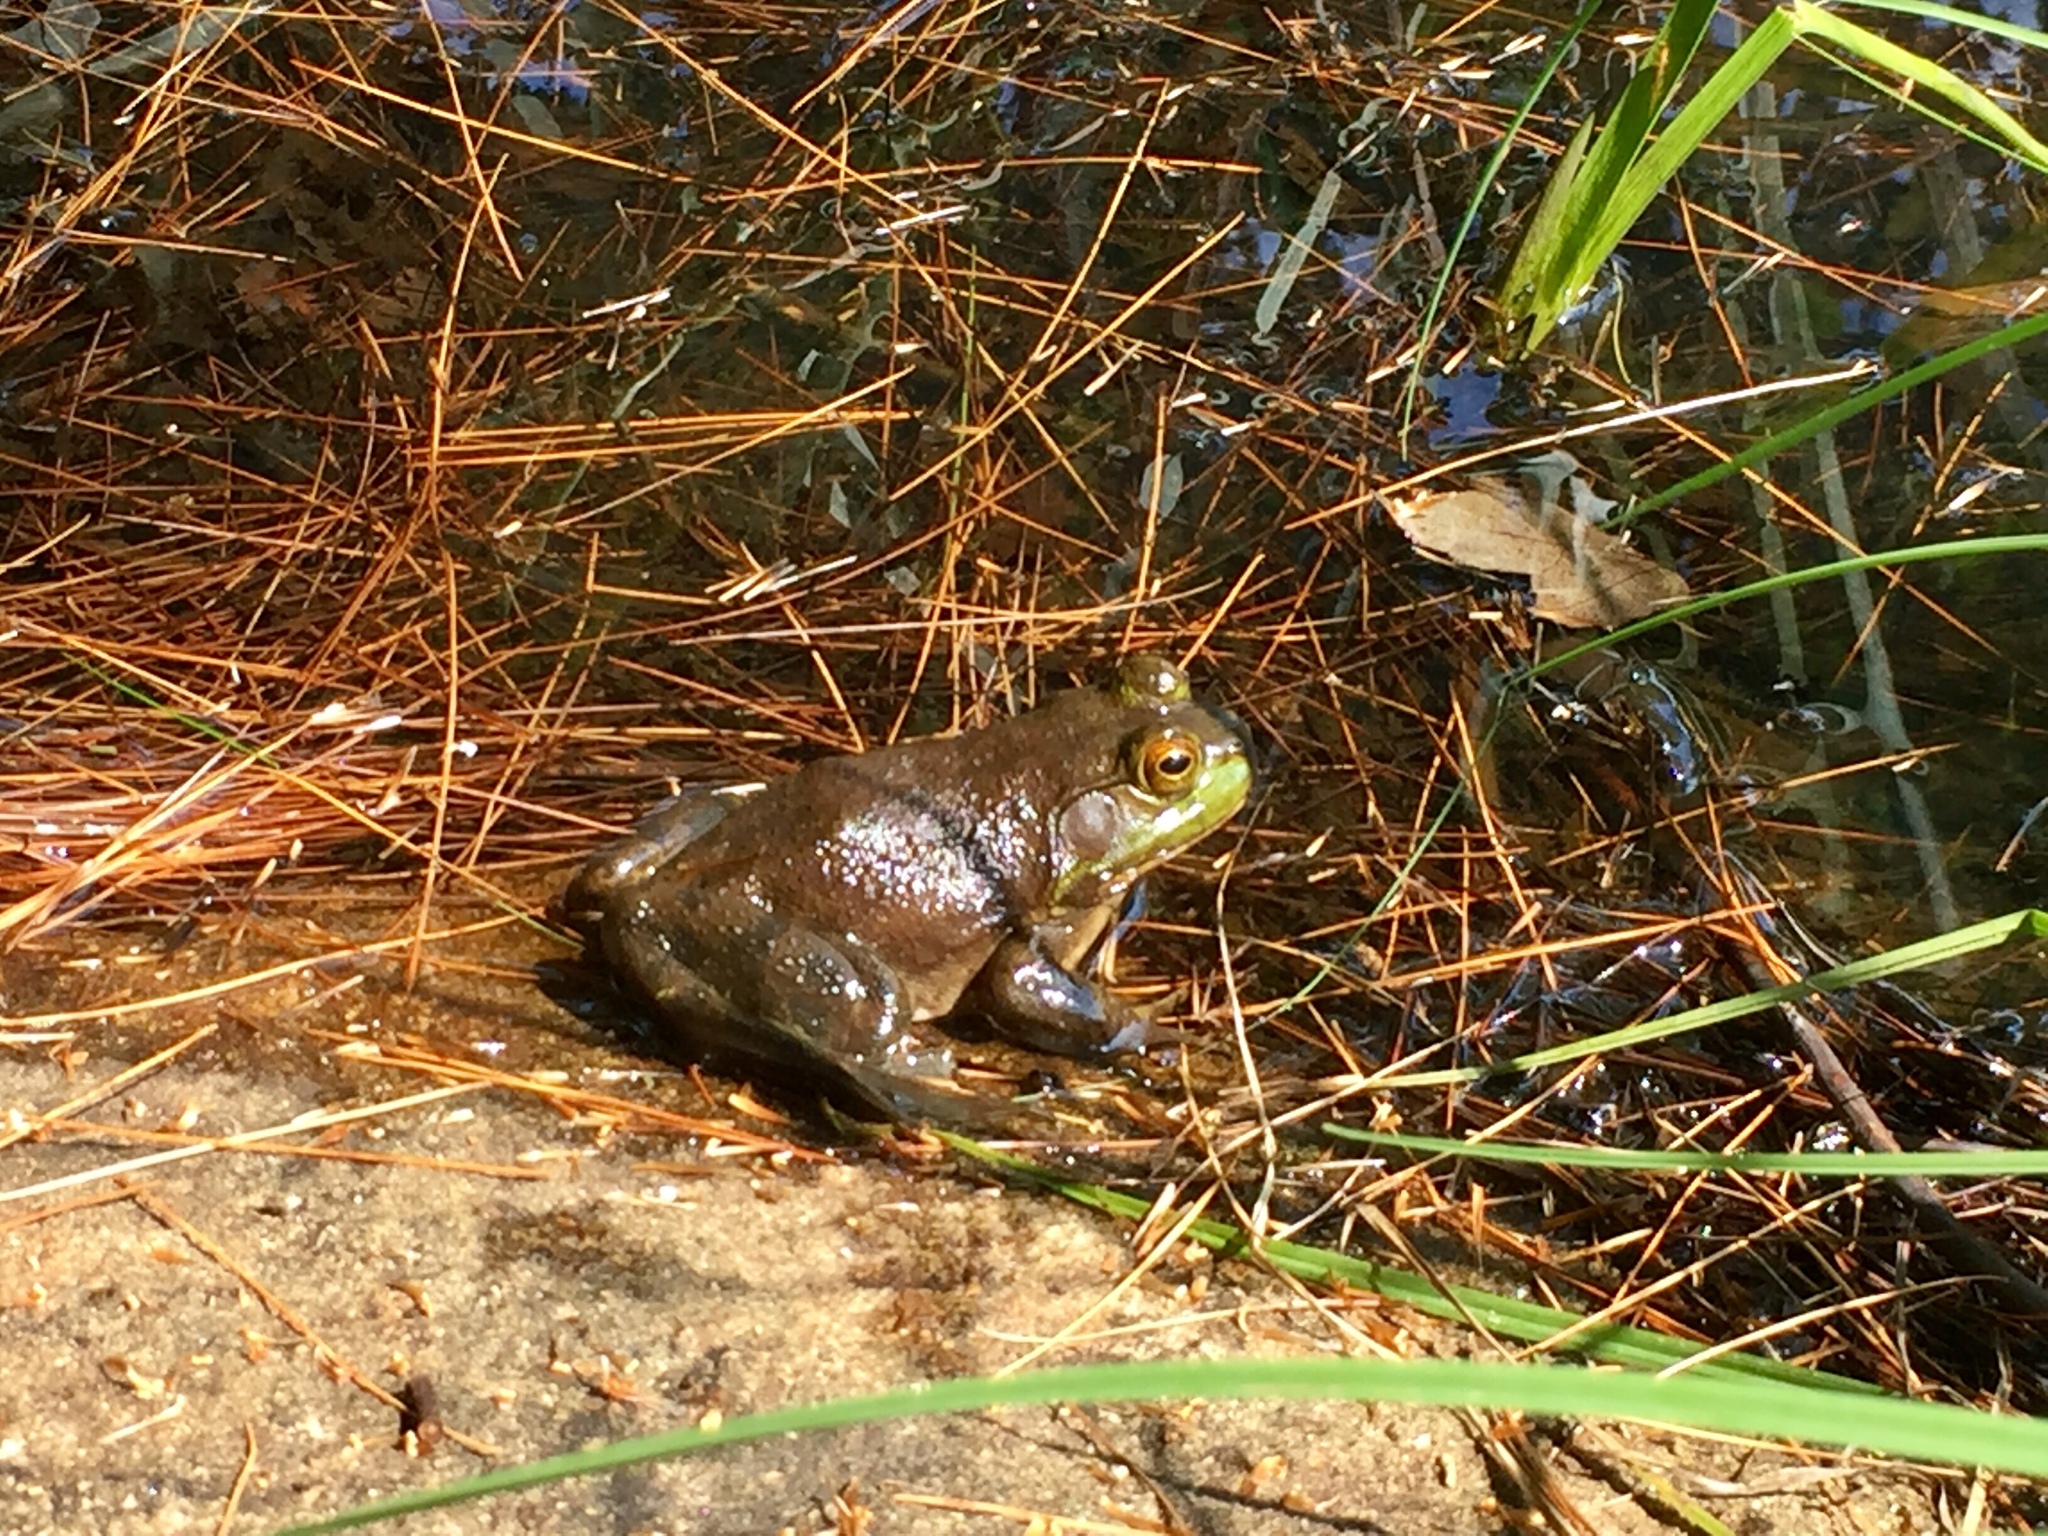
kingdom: Animalia
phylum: Chordata
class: Amphibia
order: Anura
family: Ranidae
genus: Lithobates
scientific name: Lithobates catesbeianus
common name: American bullfrog
